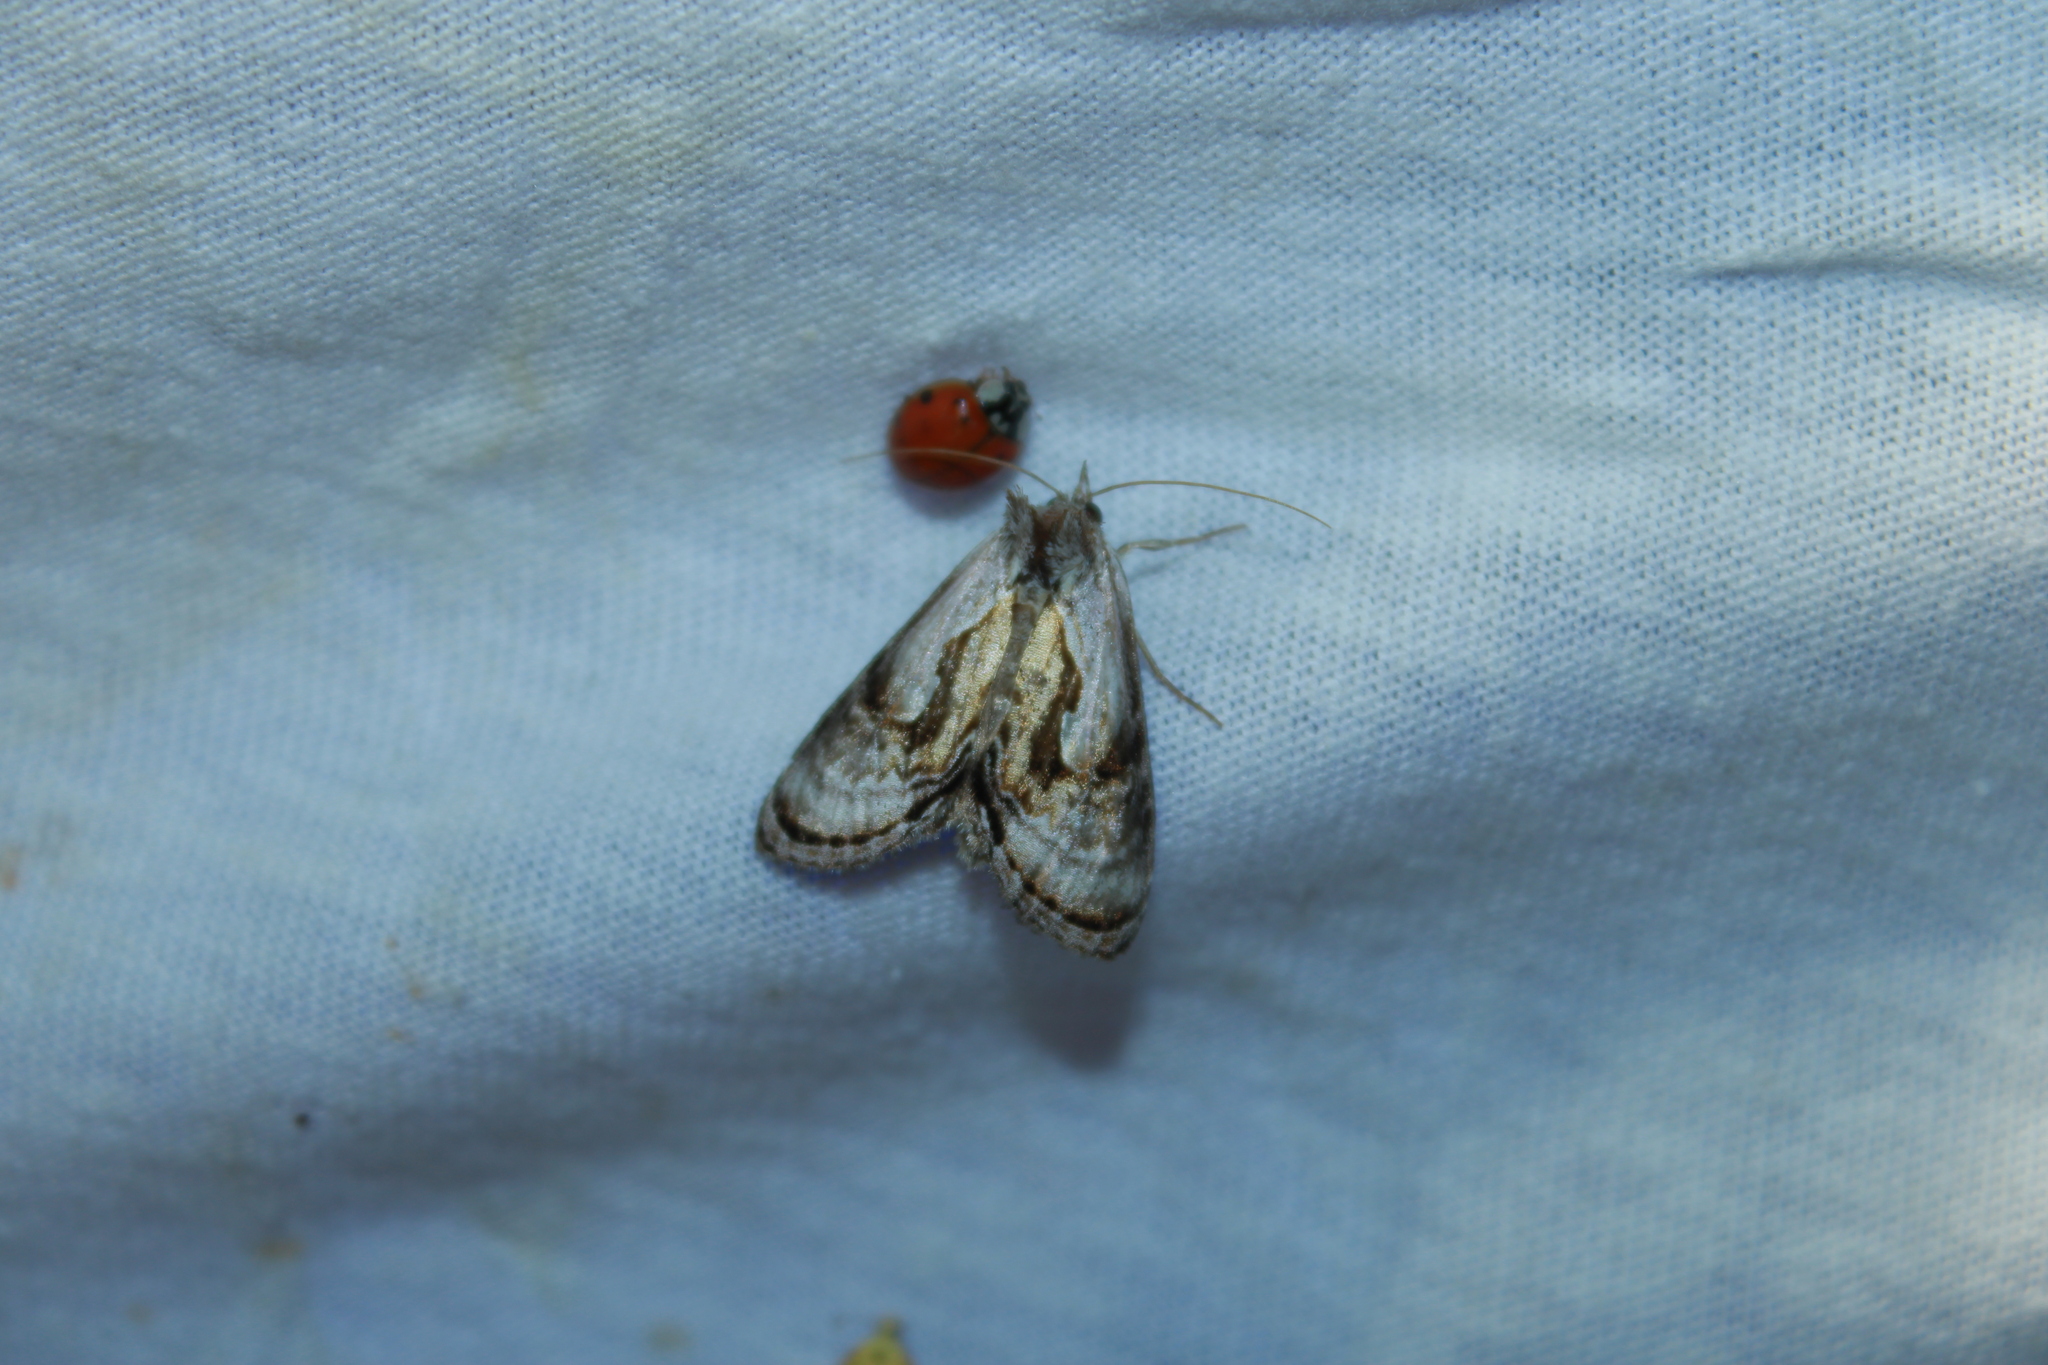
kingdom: Animalia
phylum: Arthropoda
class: Insecta
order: Lepidoptera
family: Noctuidae
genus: Chrysanympha
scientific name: Chrysanympha formosa
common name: Formosa looper moth
